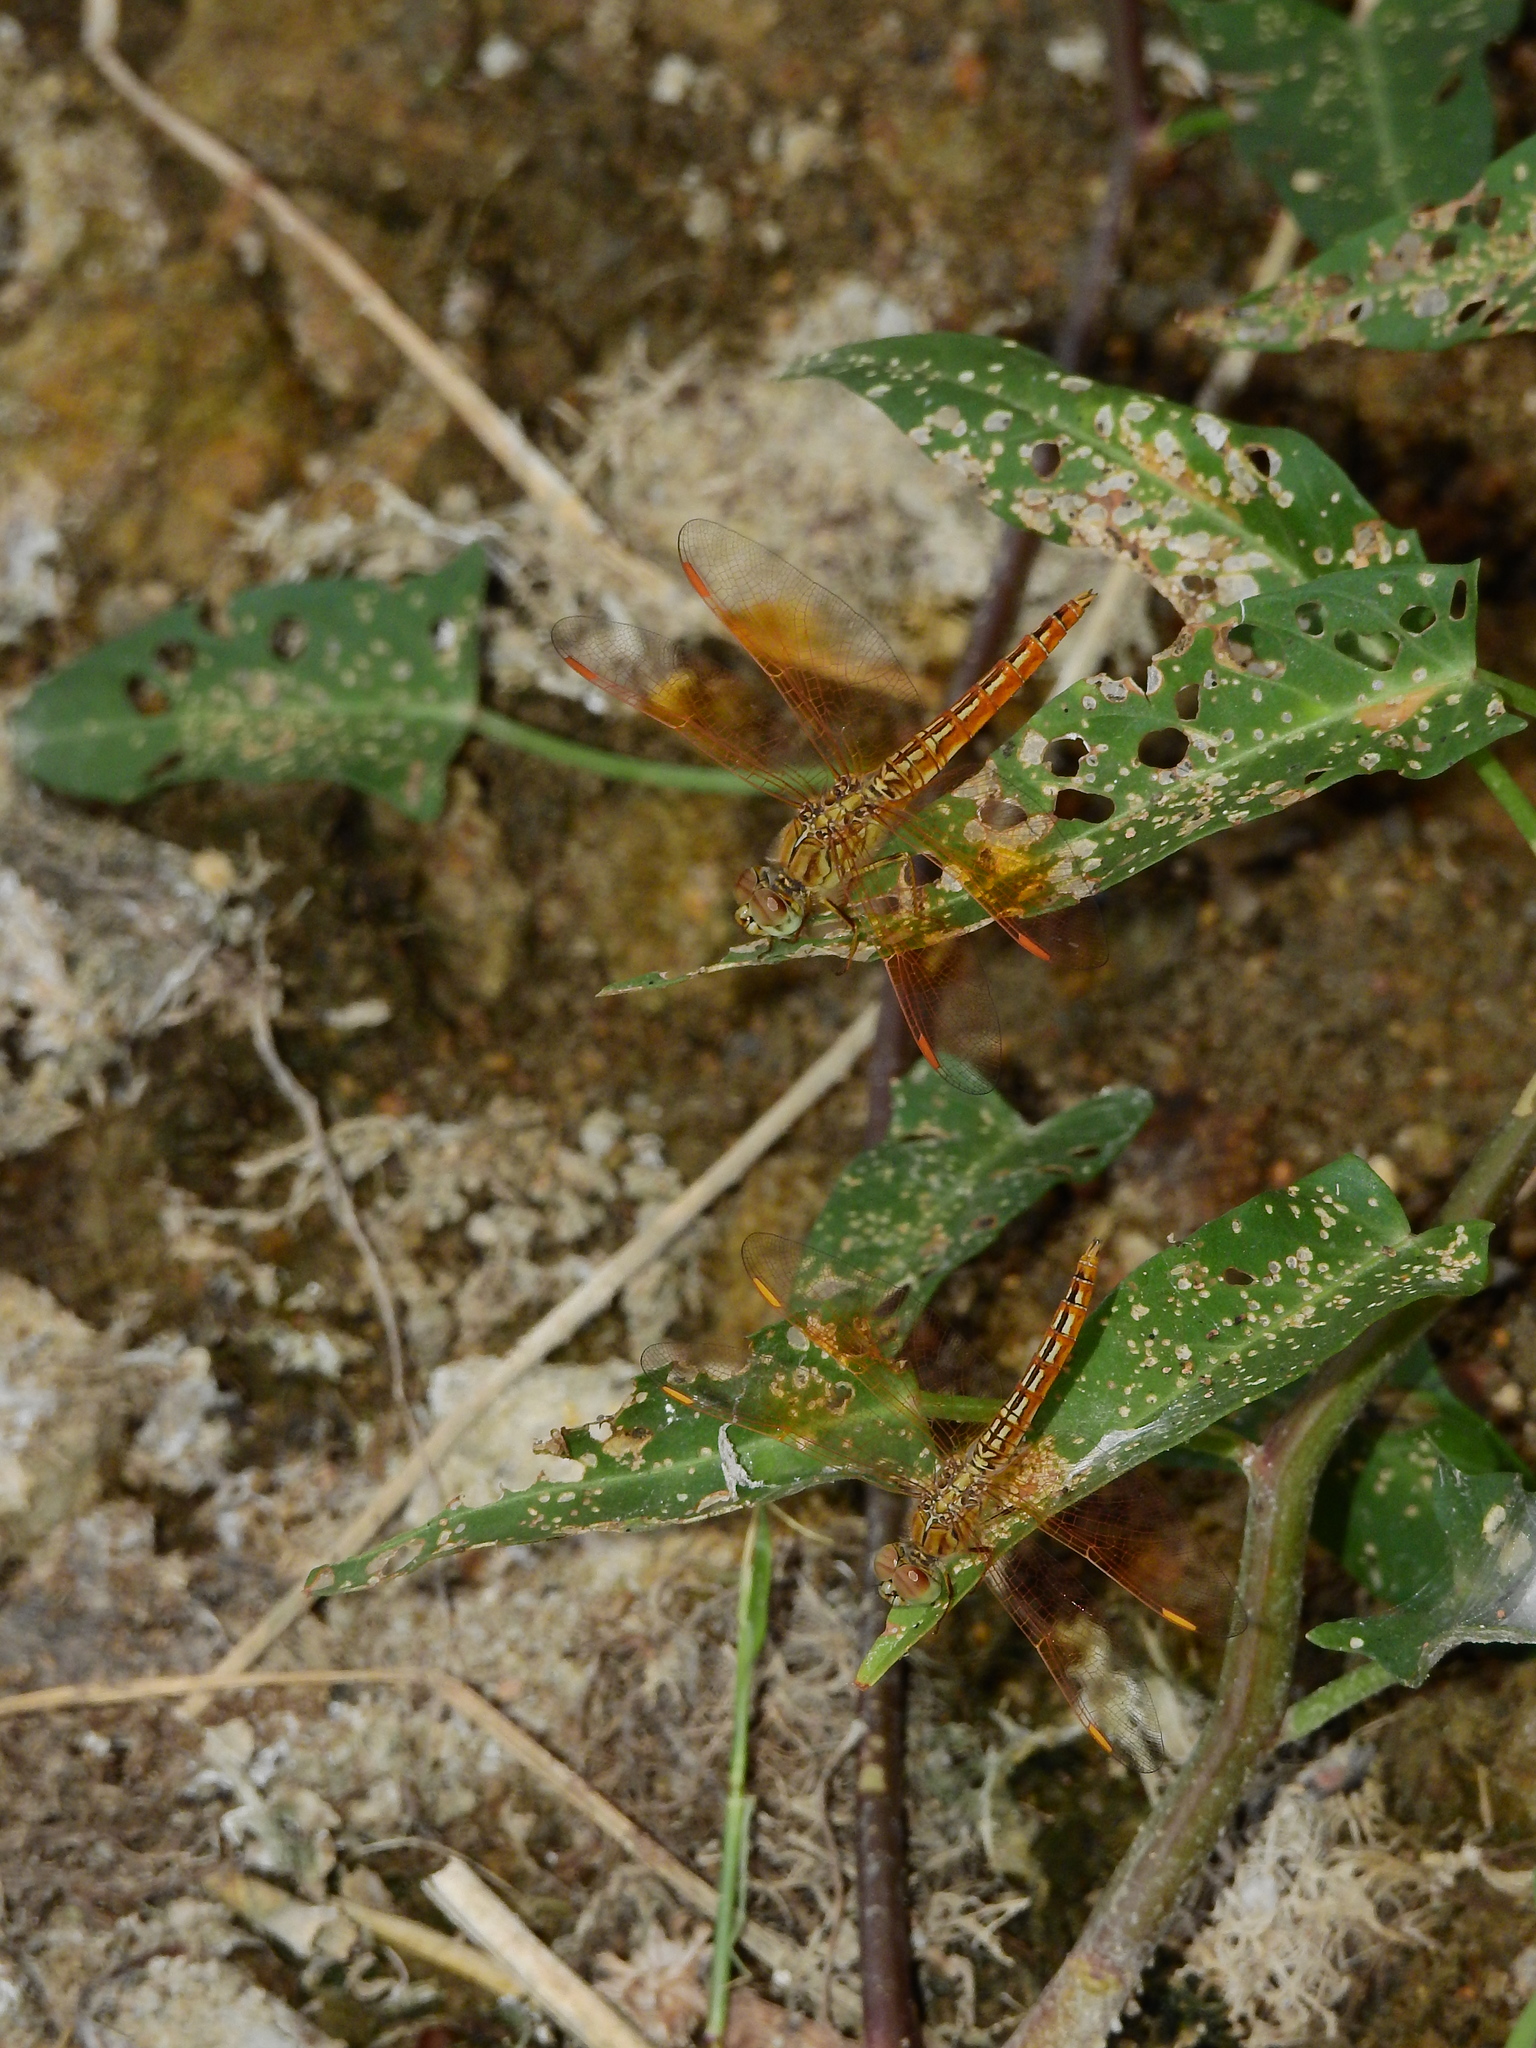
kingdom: Animalia
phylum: Arthropoda
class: Insecta
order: Odonata
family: Libellulidae
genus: Brachythemis
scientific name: Brachythemis contaminata
